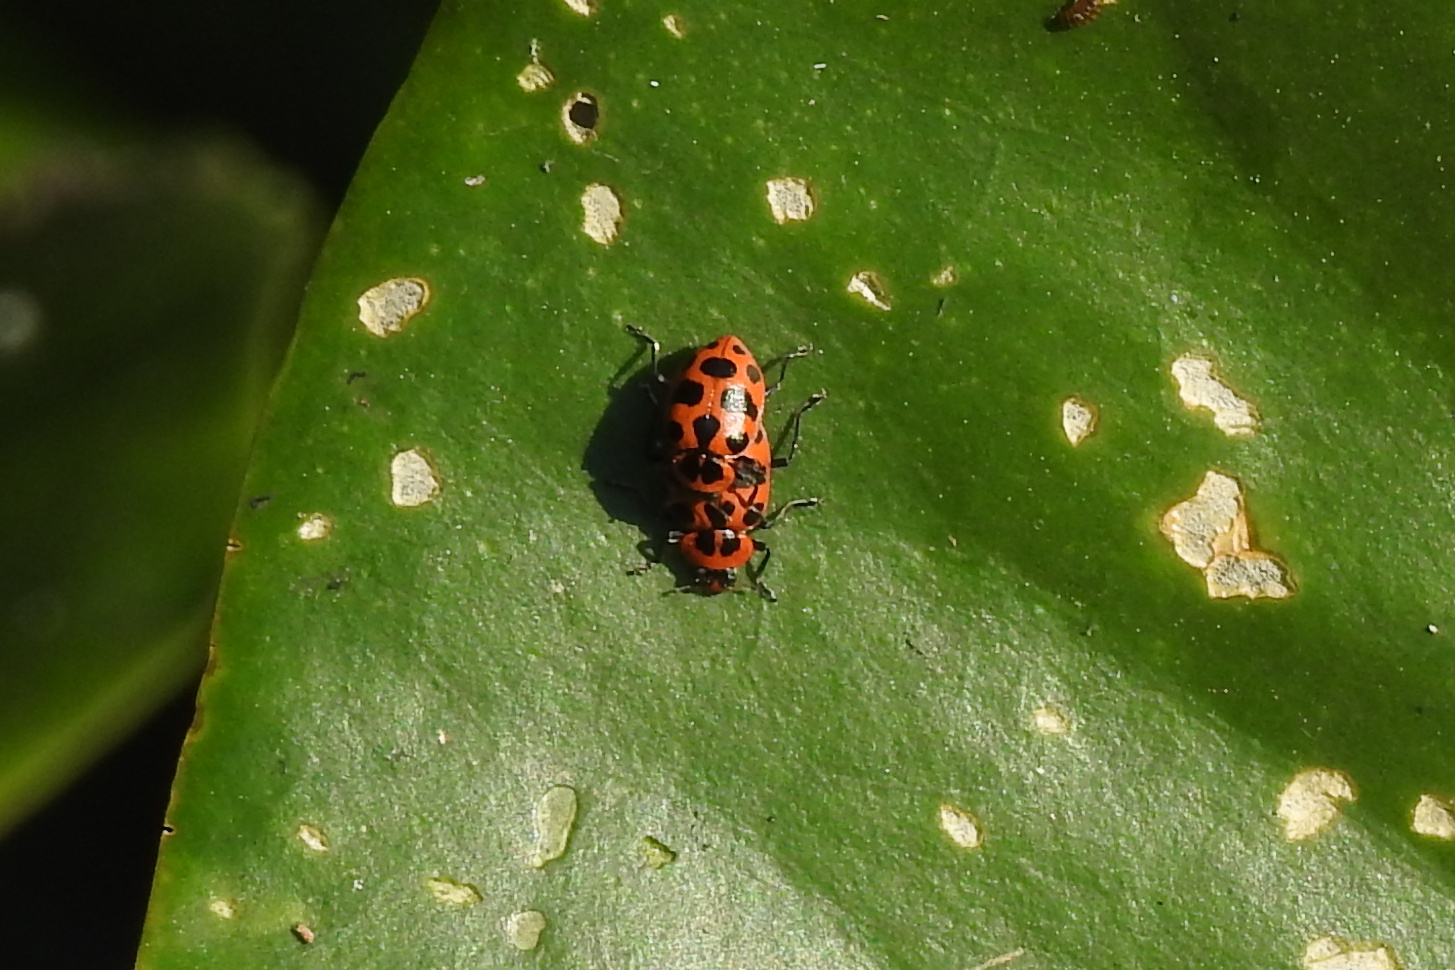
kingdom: Animalia
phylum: Arthropoda
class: Insecta
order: Coleoptera
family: Coccinellidae
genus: Coleomegilla
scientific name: Coleomegilla maculata
